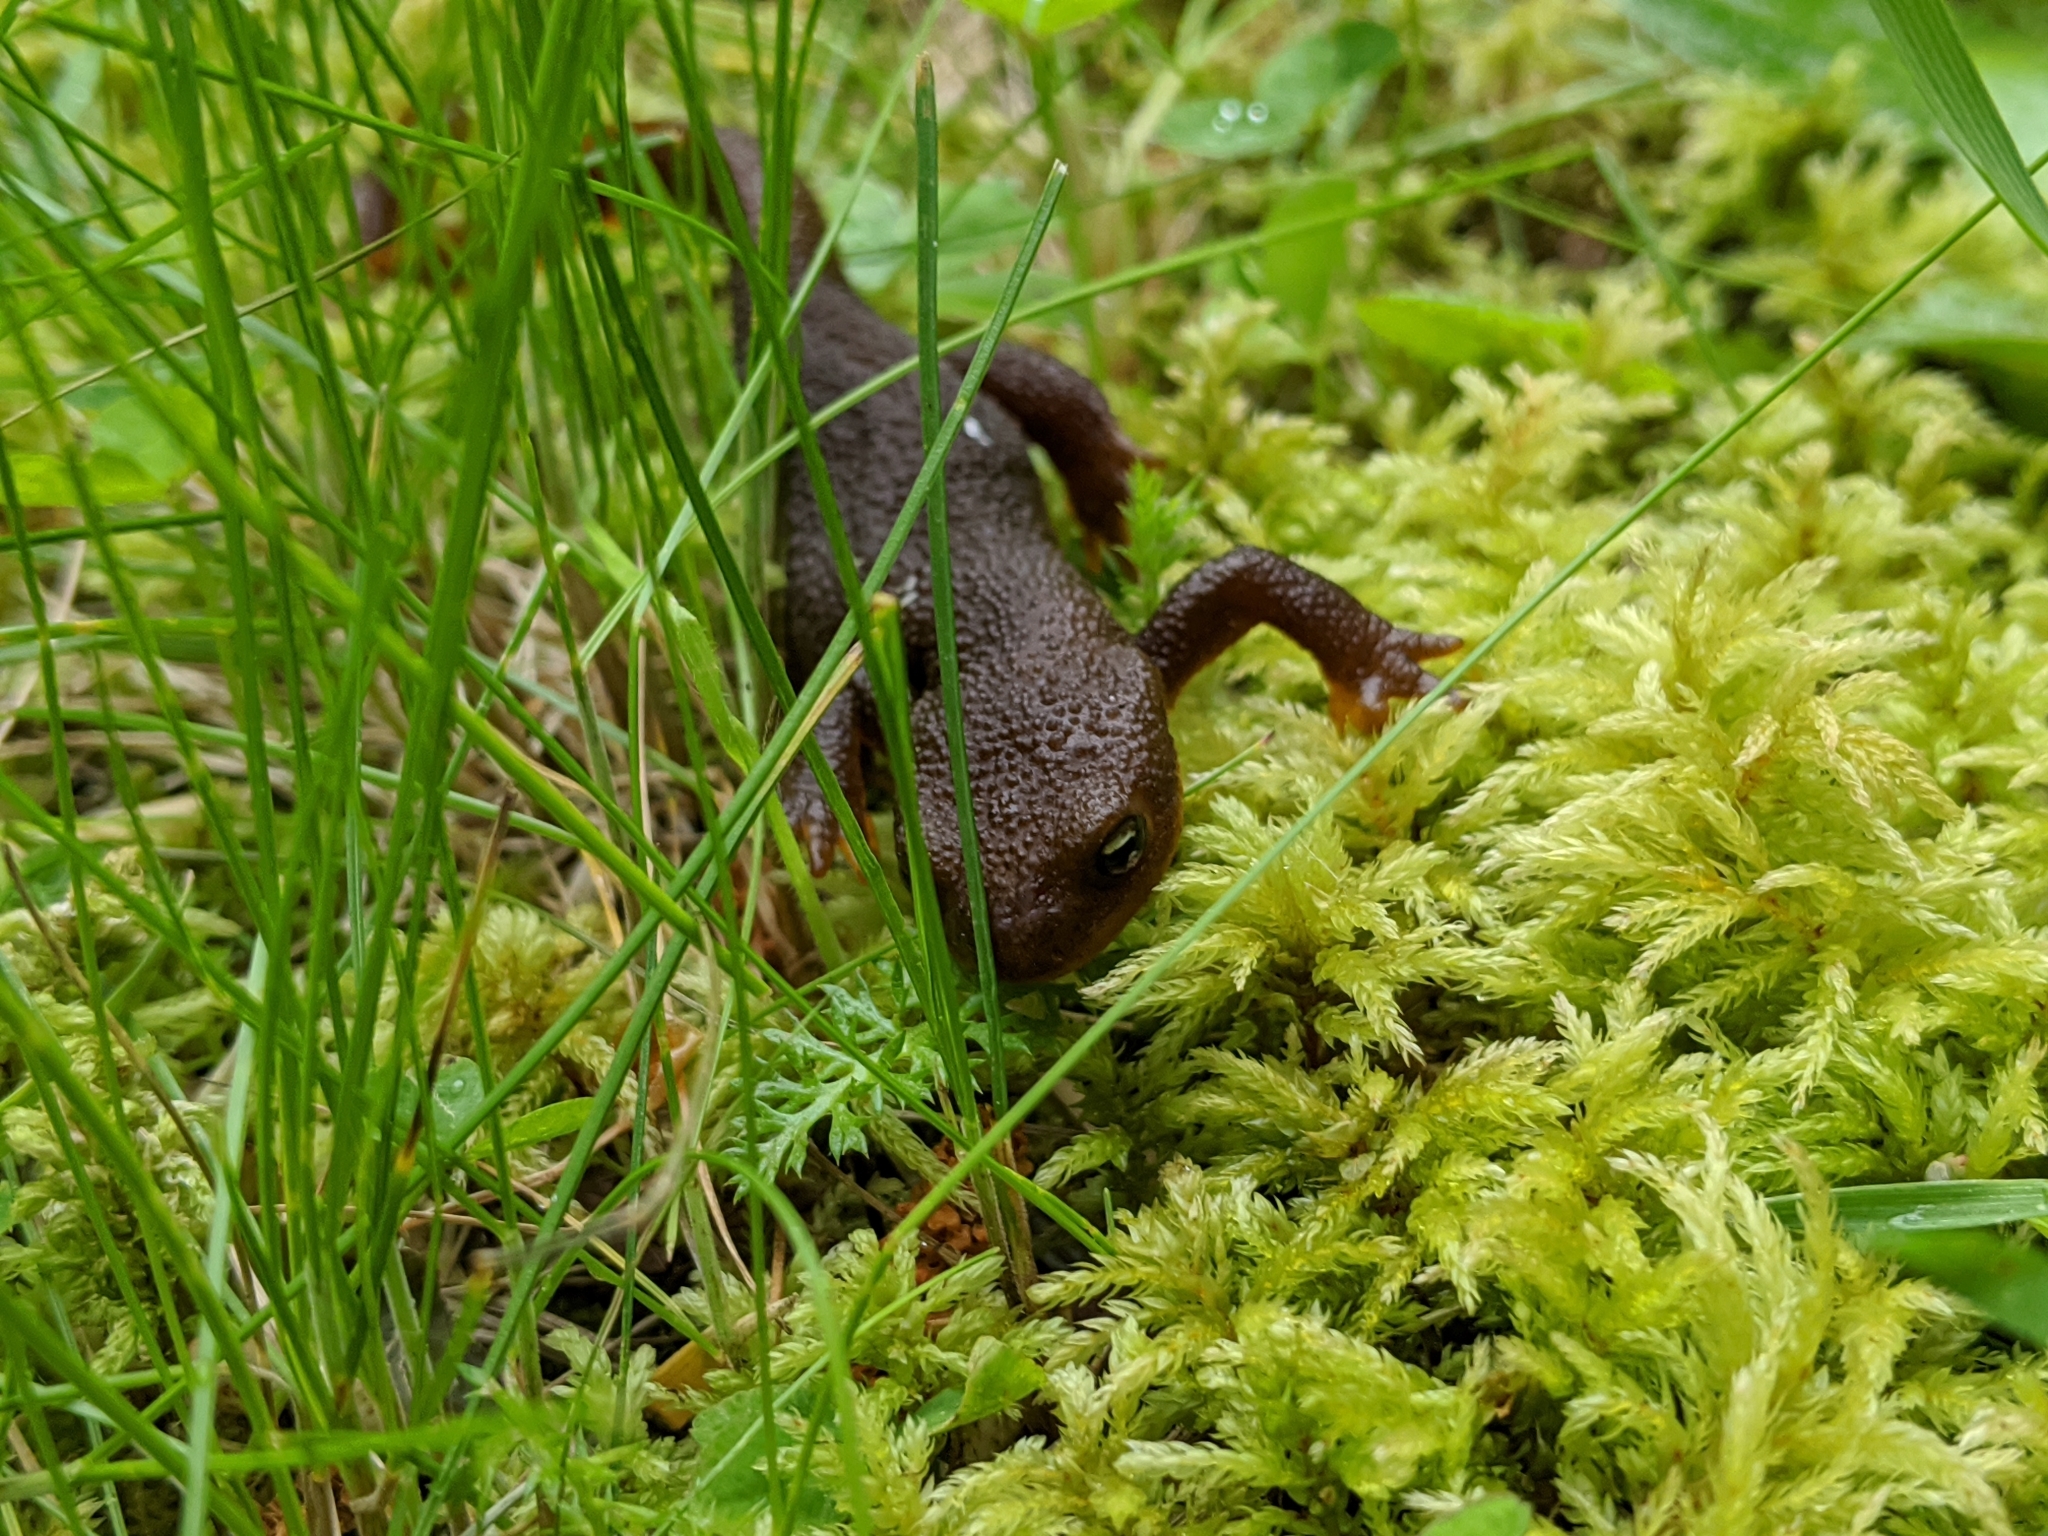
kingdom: Animalia
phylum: Chordata
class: Amphibia
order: Caudata
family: Salamandridae
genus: Taricha
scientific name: Taricha granulosa
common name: Roughskin newt
